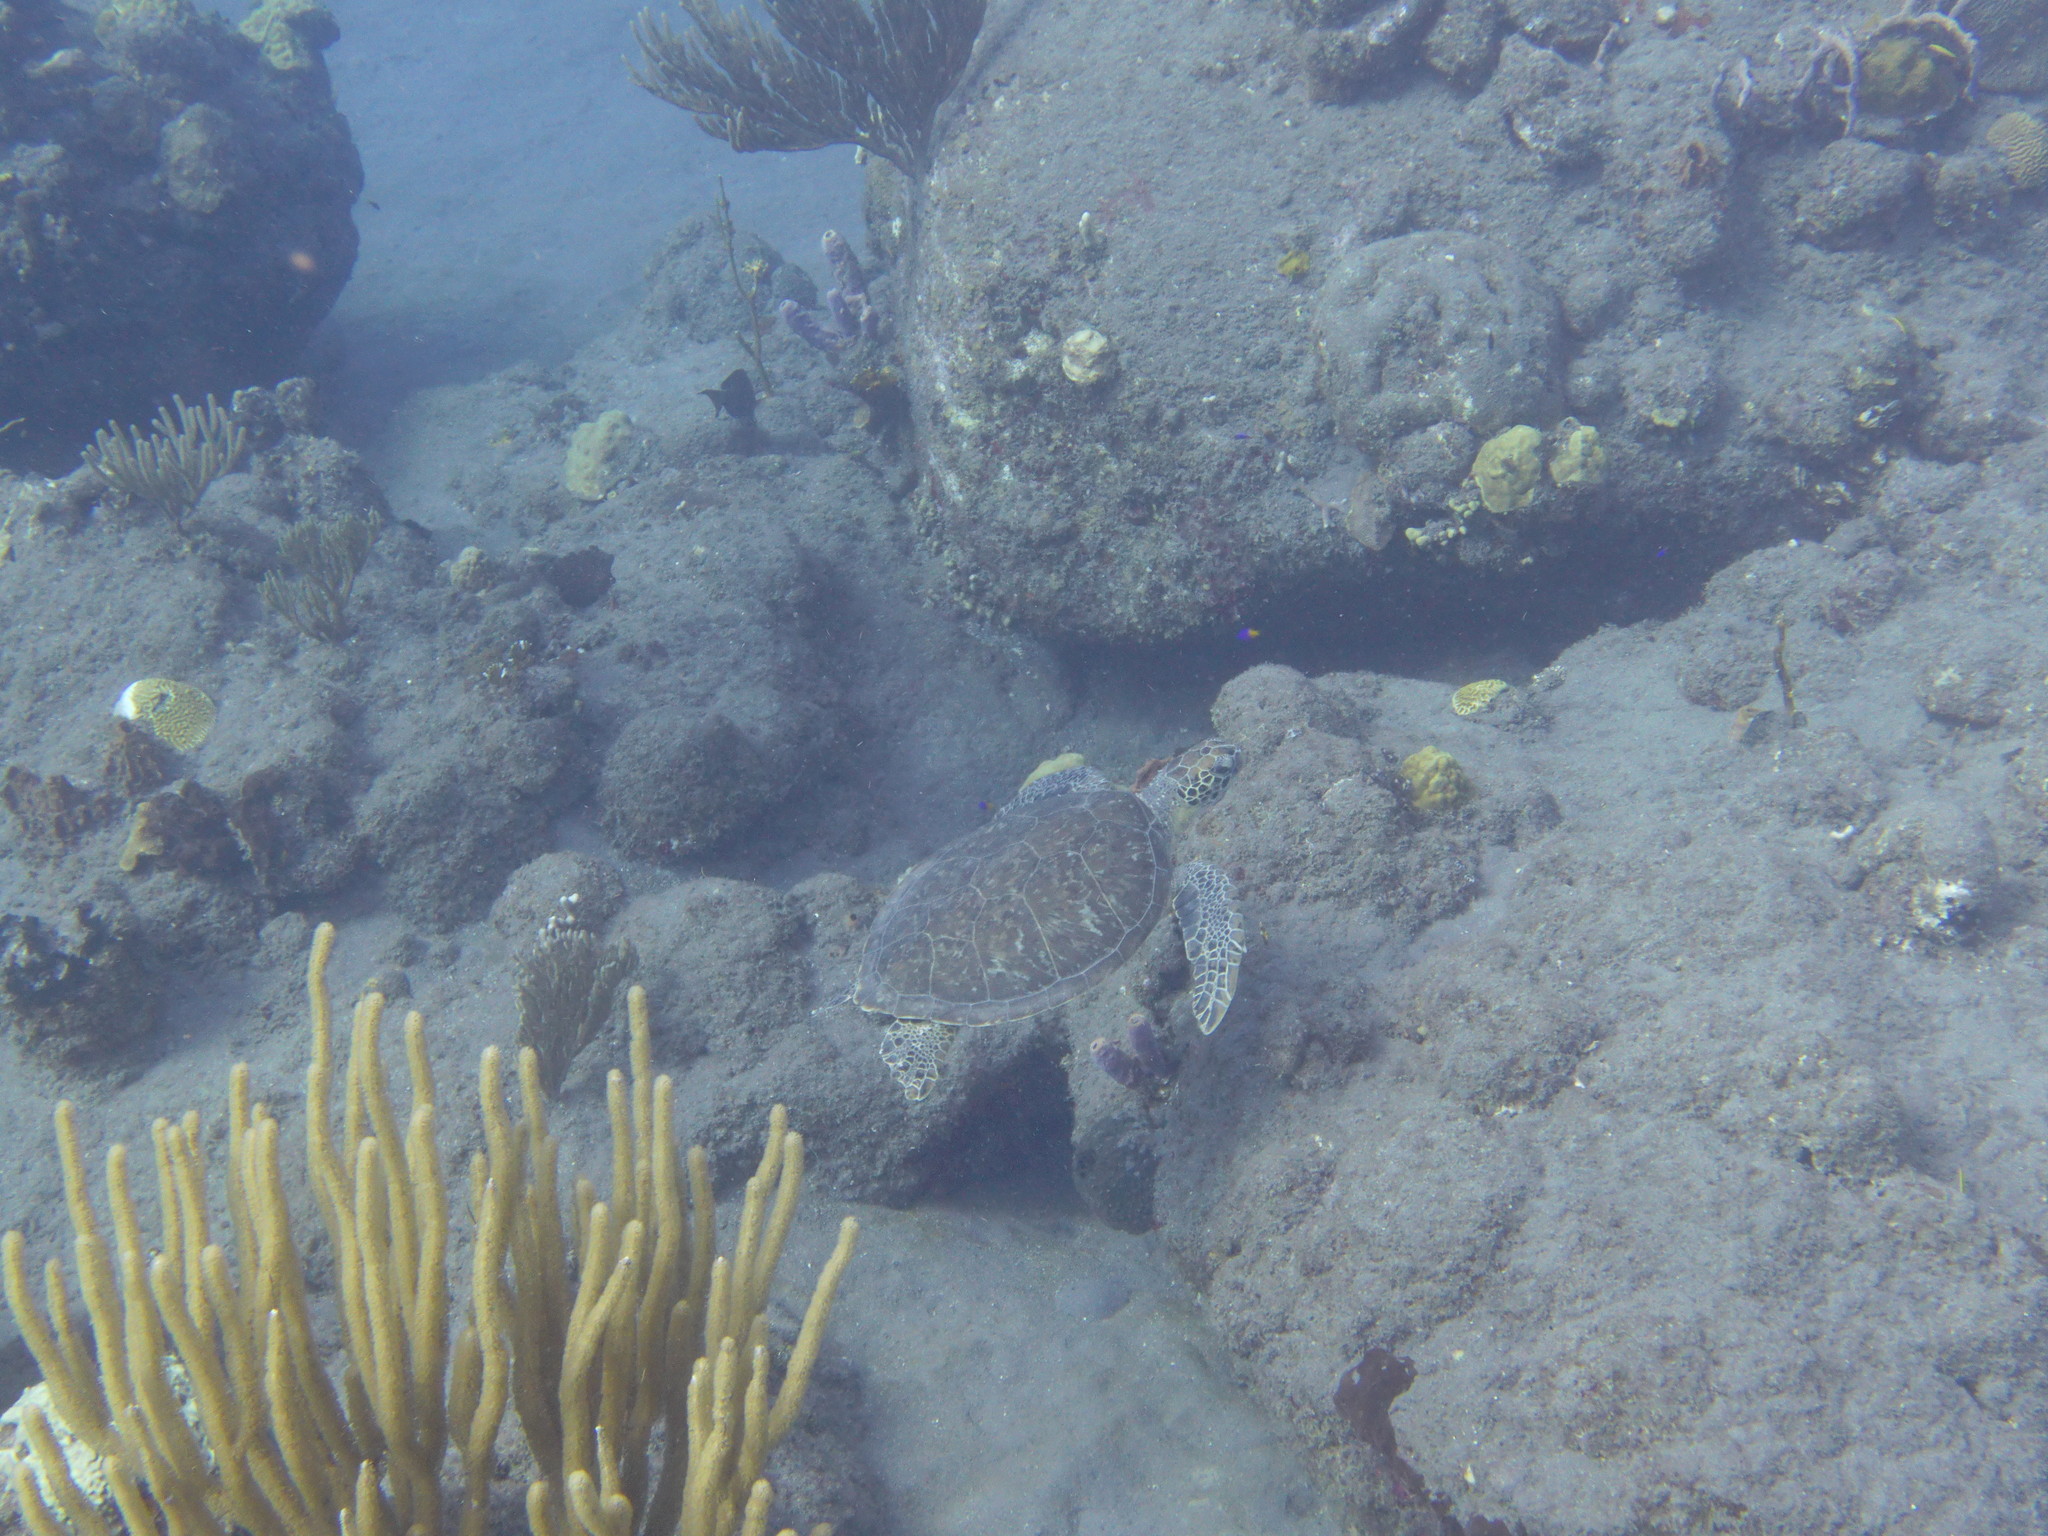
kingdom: Animalia
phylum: Chordata
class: Testudines
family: Cheloniidae
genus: Chelonia
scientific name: Chelonia mydas
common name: Green turtle
